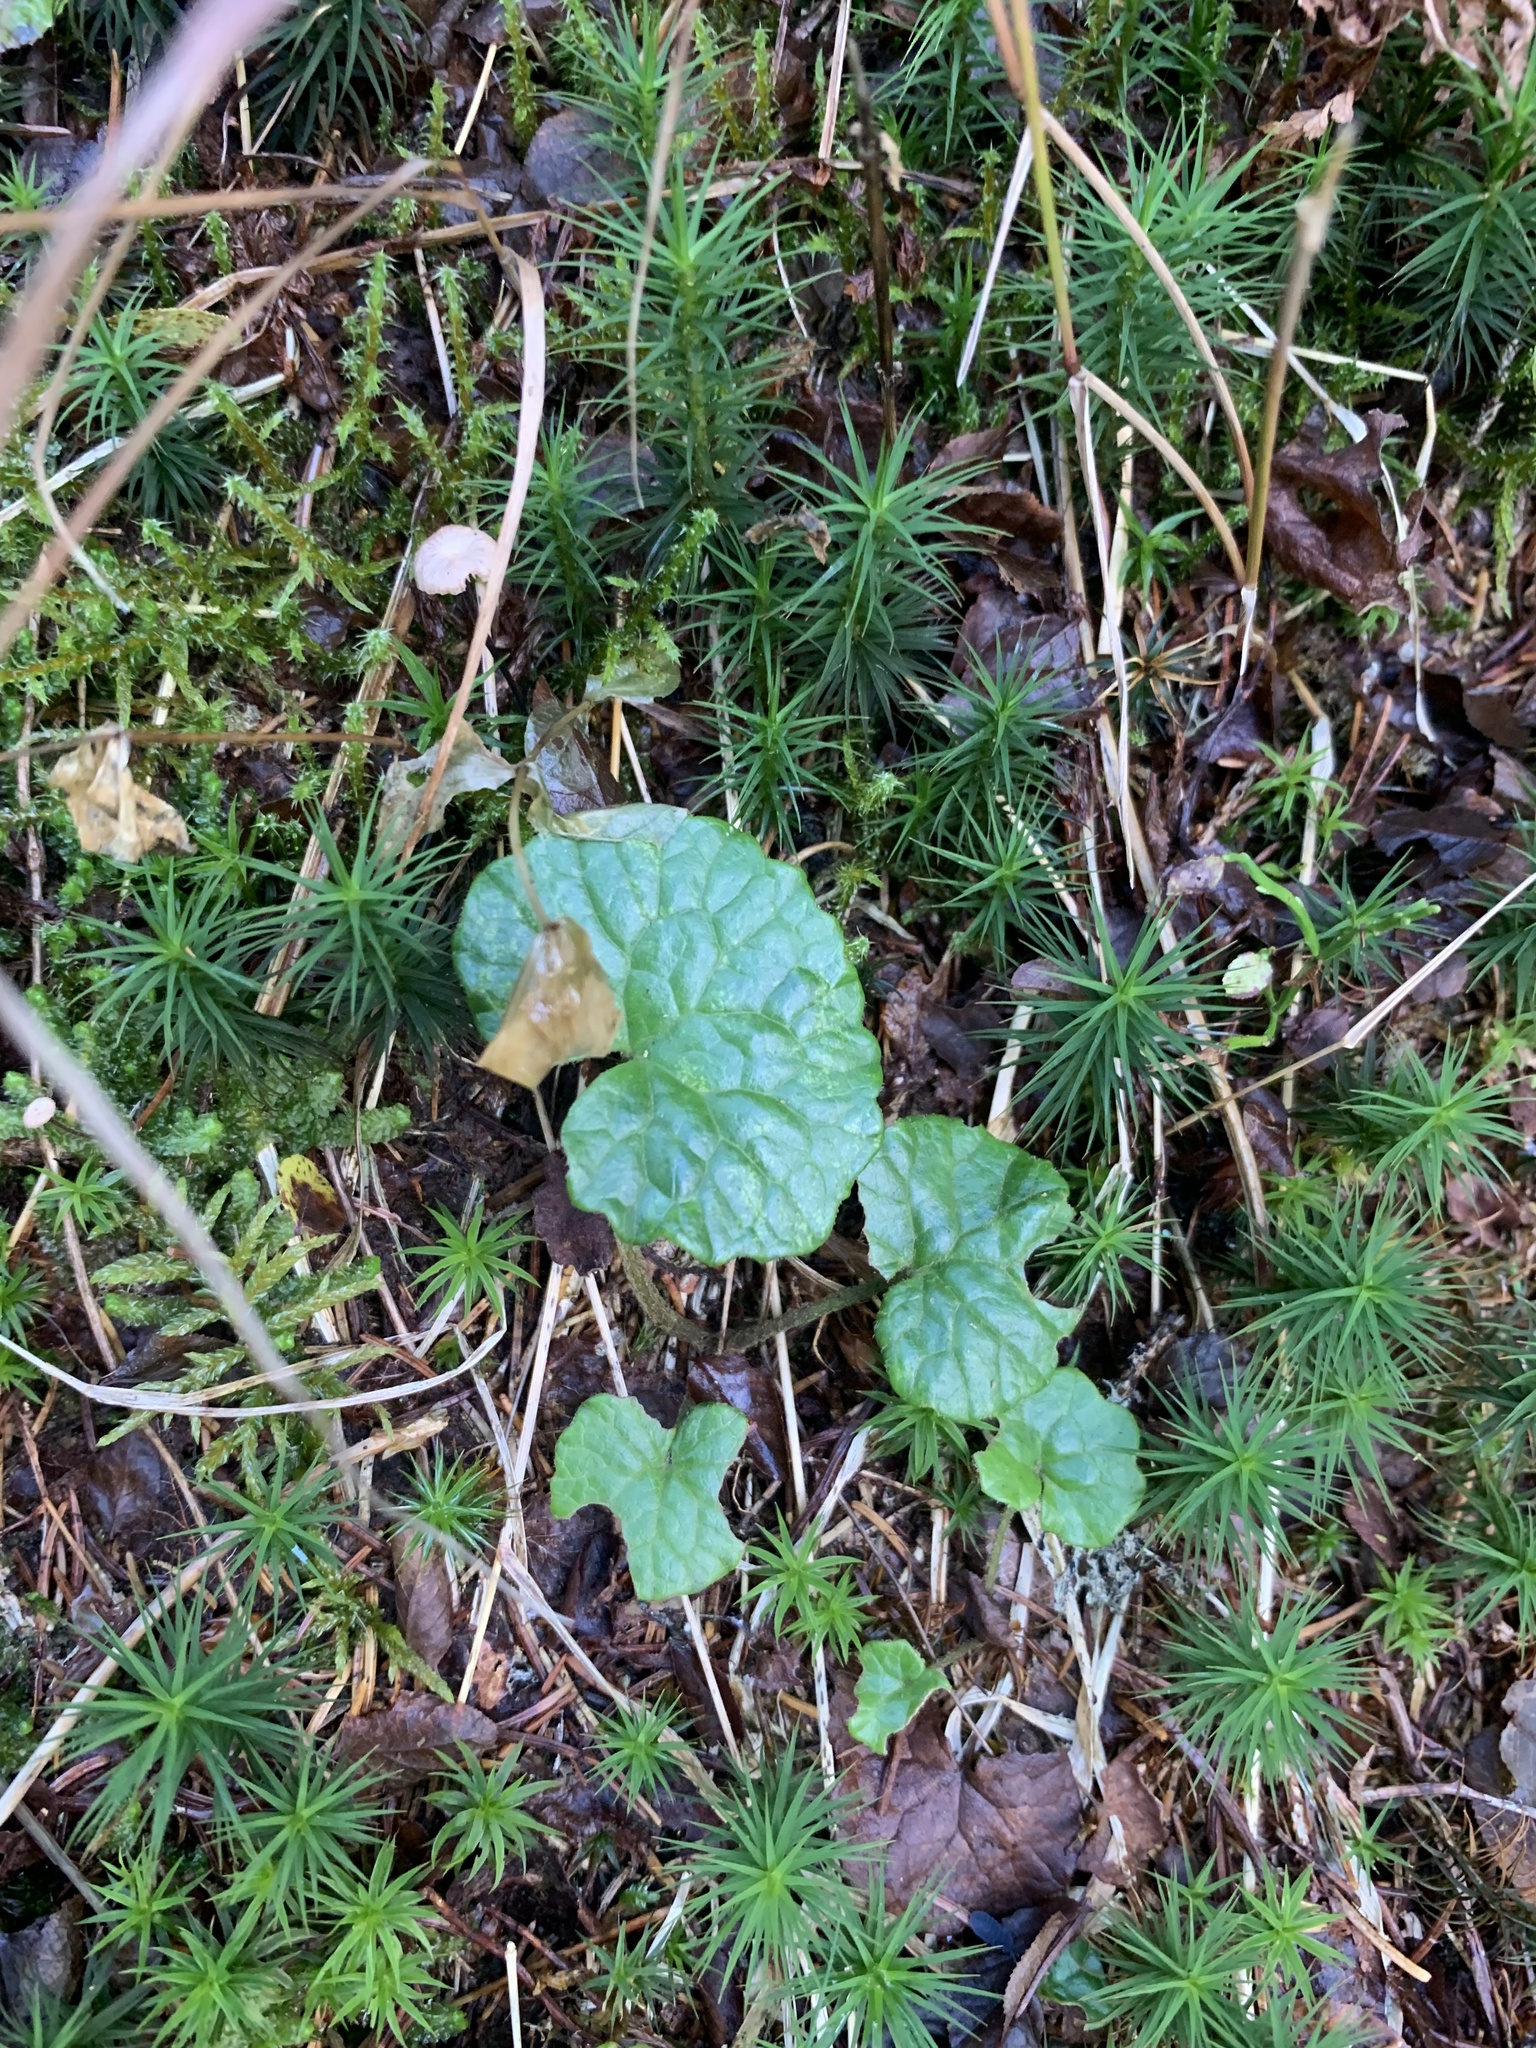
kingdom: Plantae
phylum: Tracheophyta
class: Magnoliopsida
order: Asterales
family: Asteraceae
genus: Homogyne
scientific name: Homogyne alpina
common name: Purple colt's-foot
